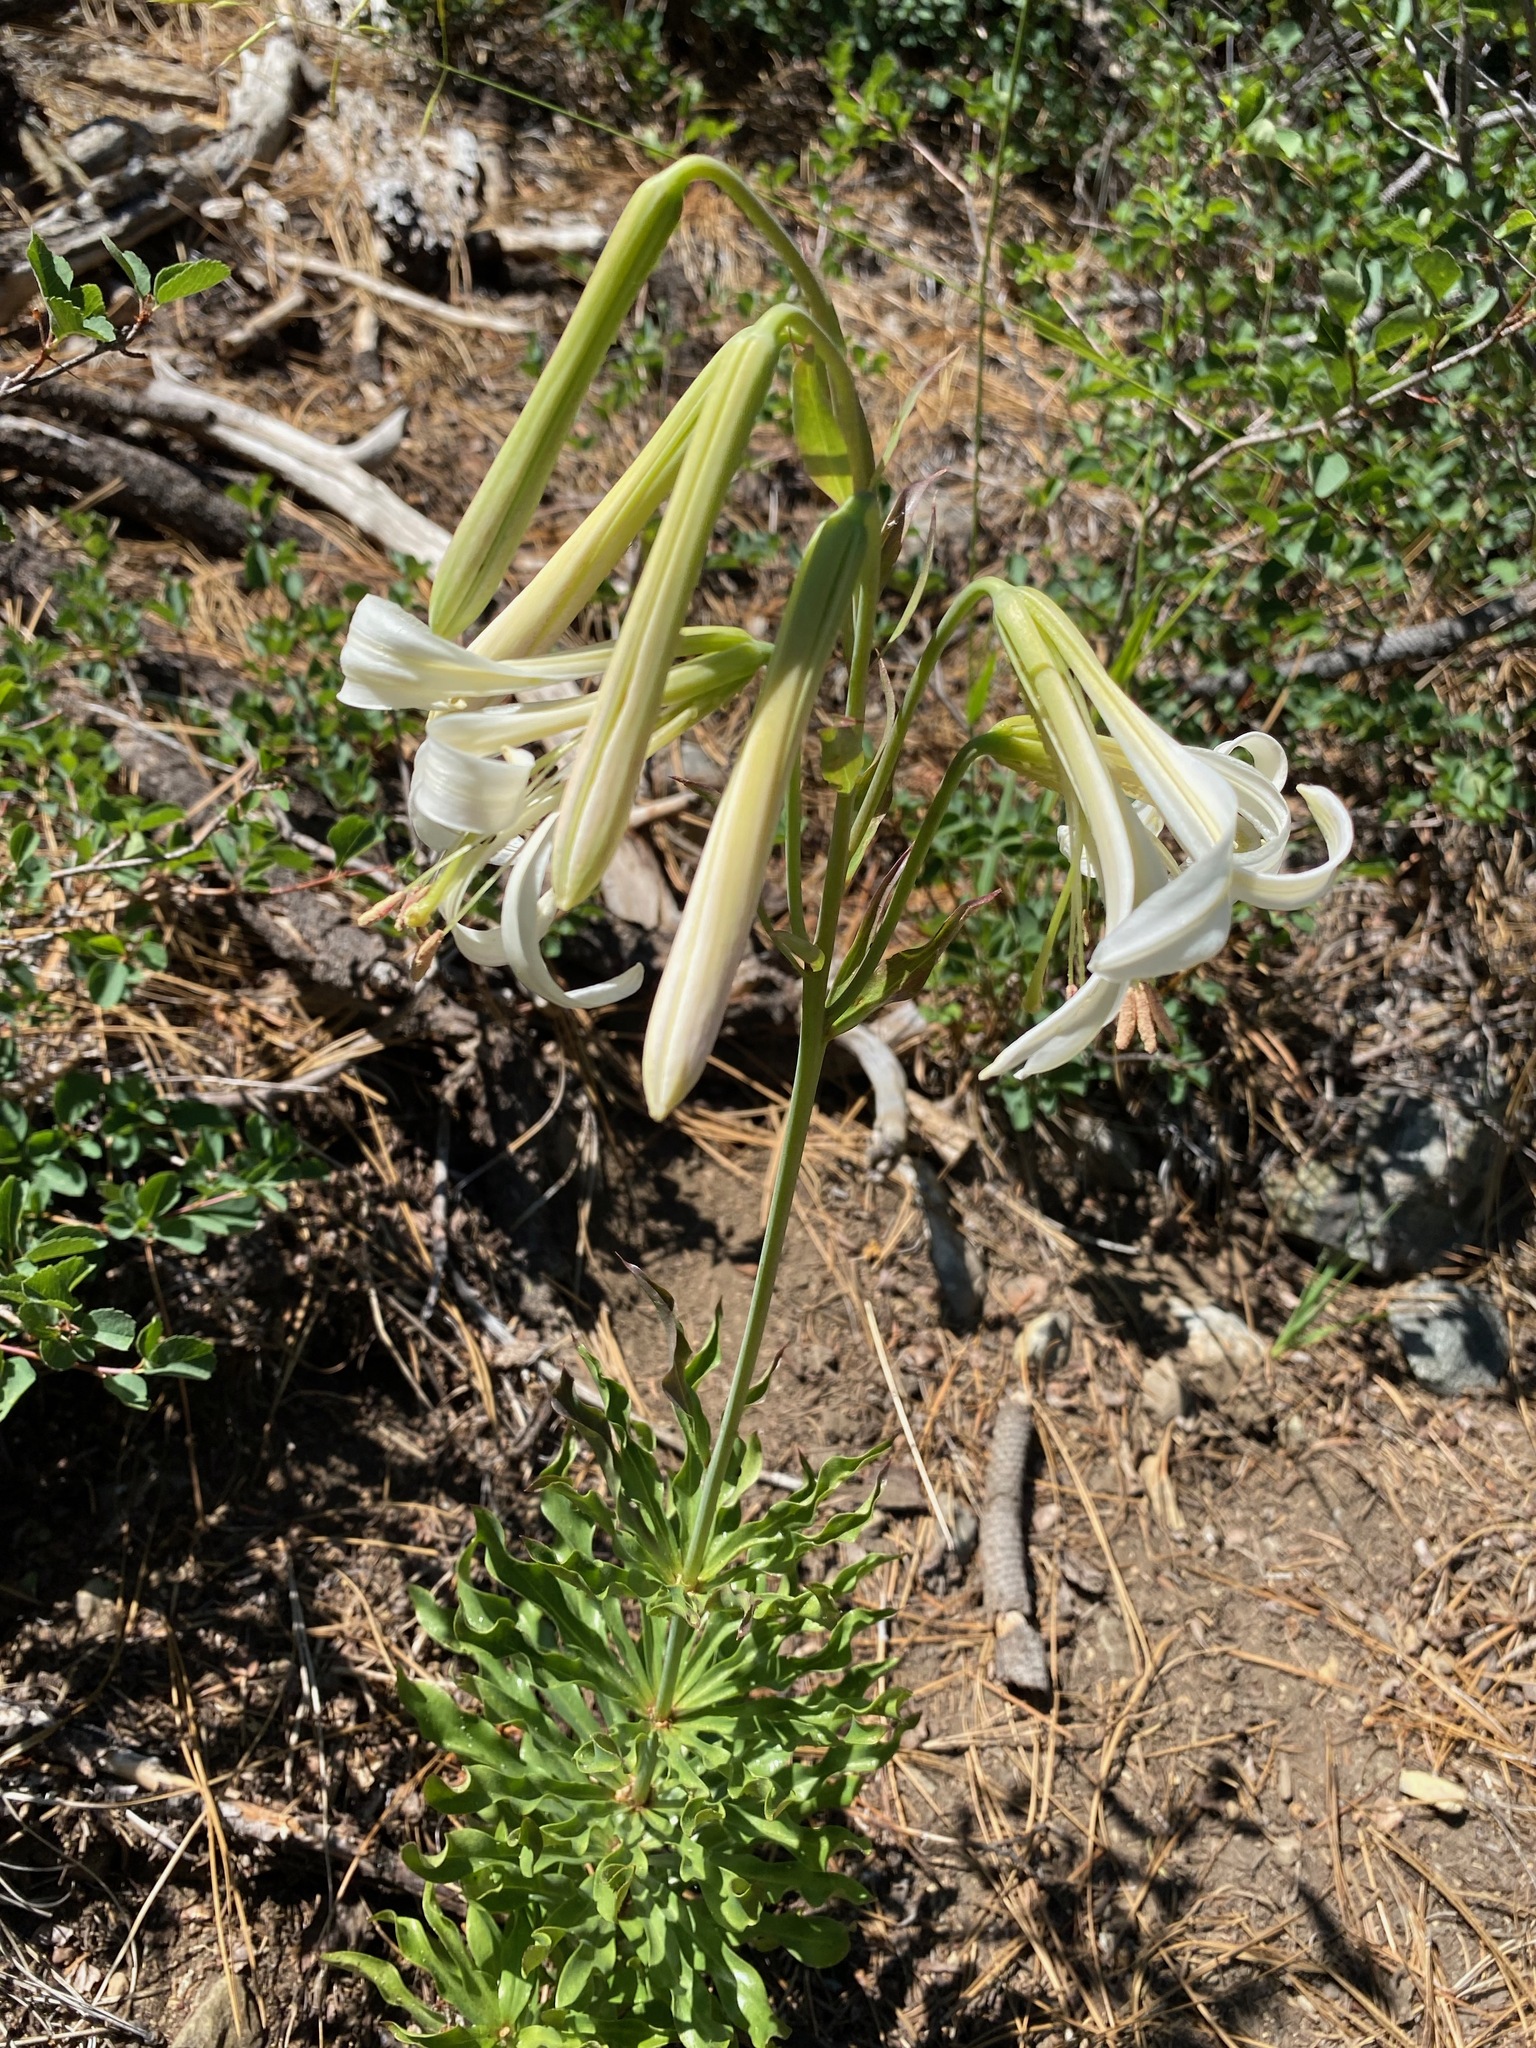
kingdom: Plantae
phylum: Tracheophyta
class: Liliopsida
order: Liliales
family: Liliaceae
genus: Lilium
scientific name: Lilium washingtonianum
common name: Washington lily
